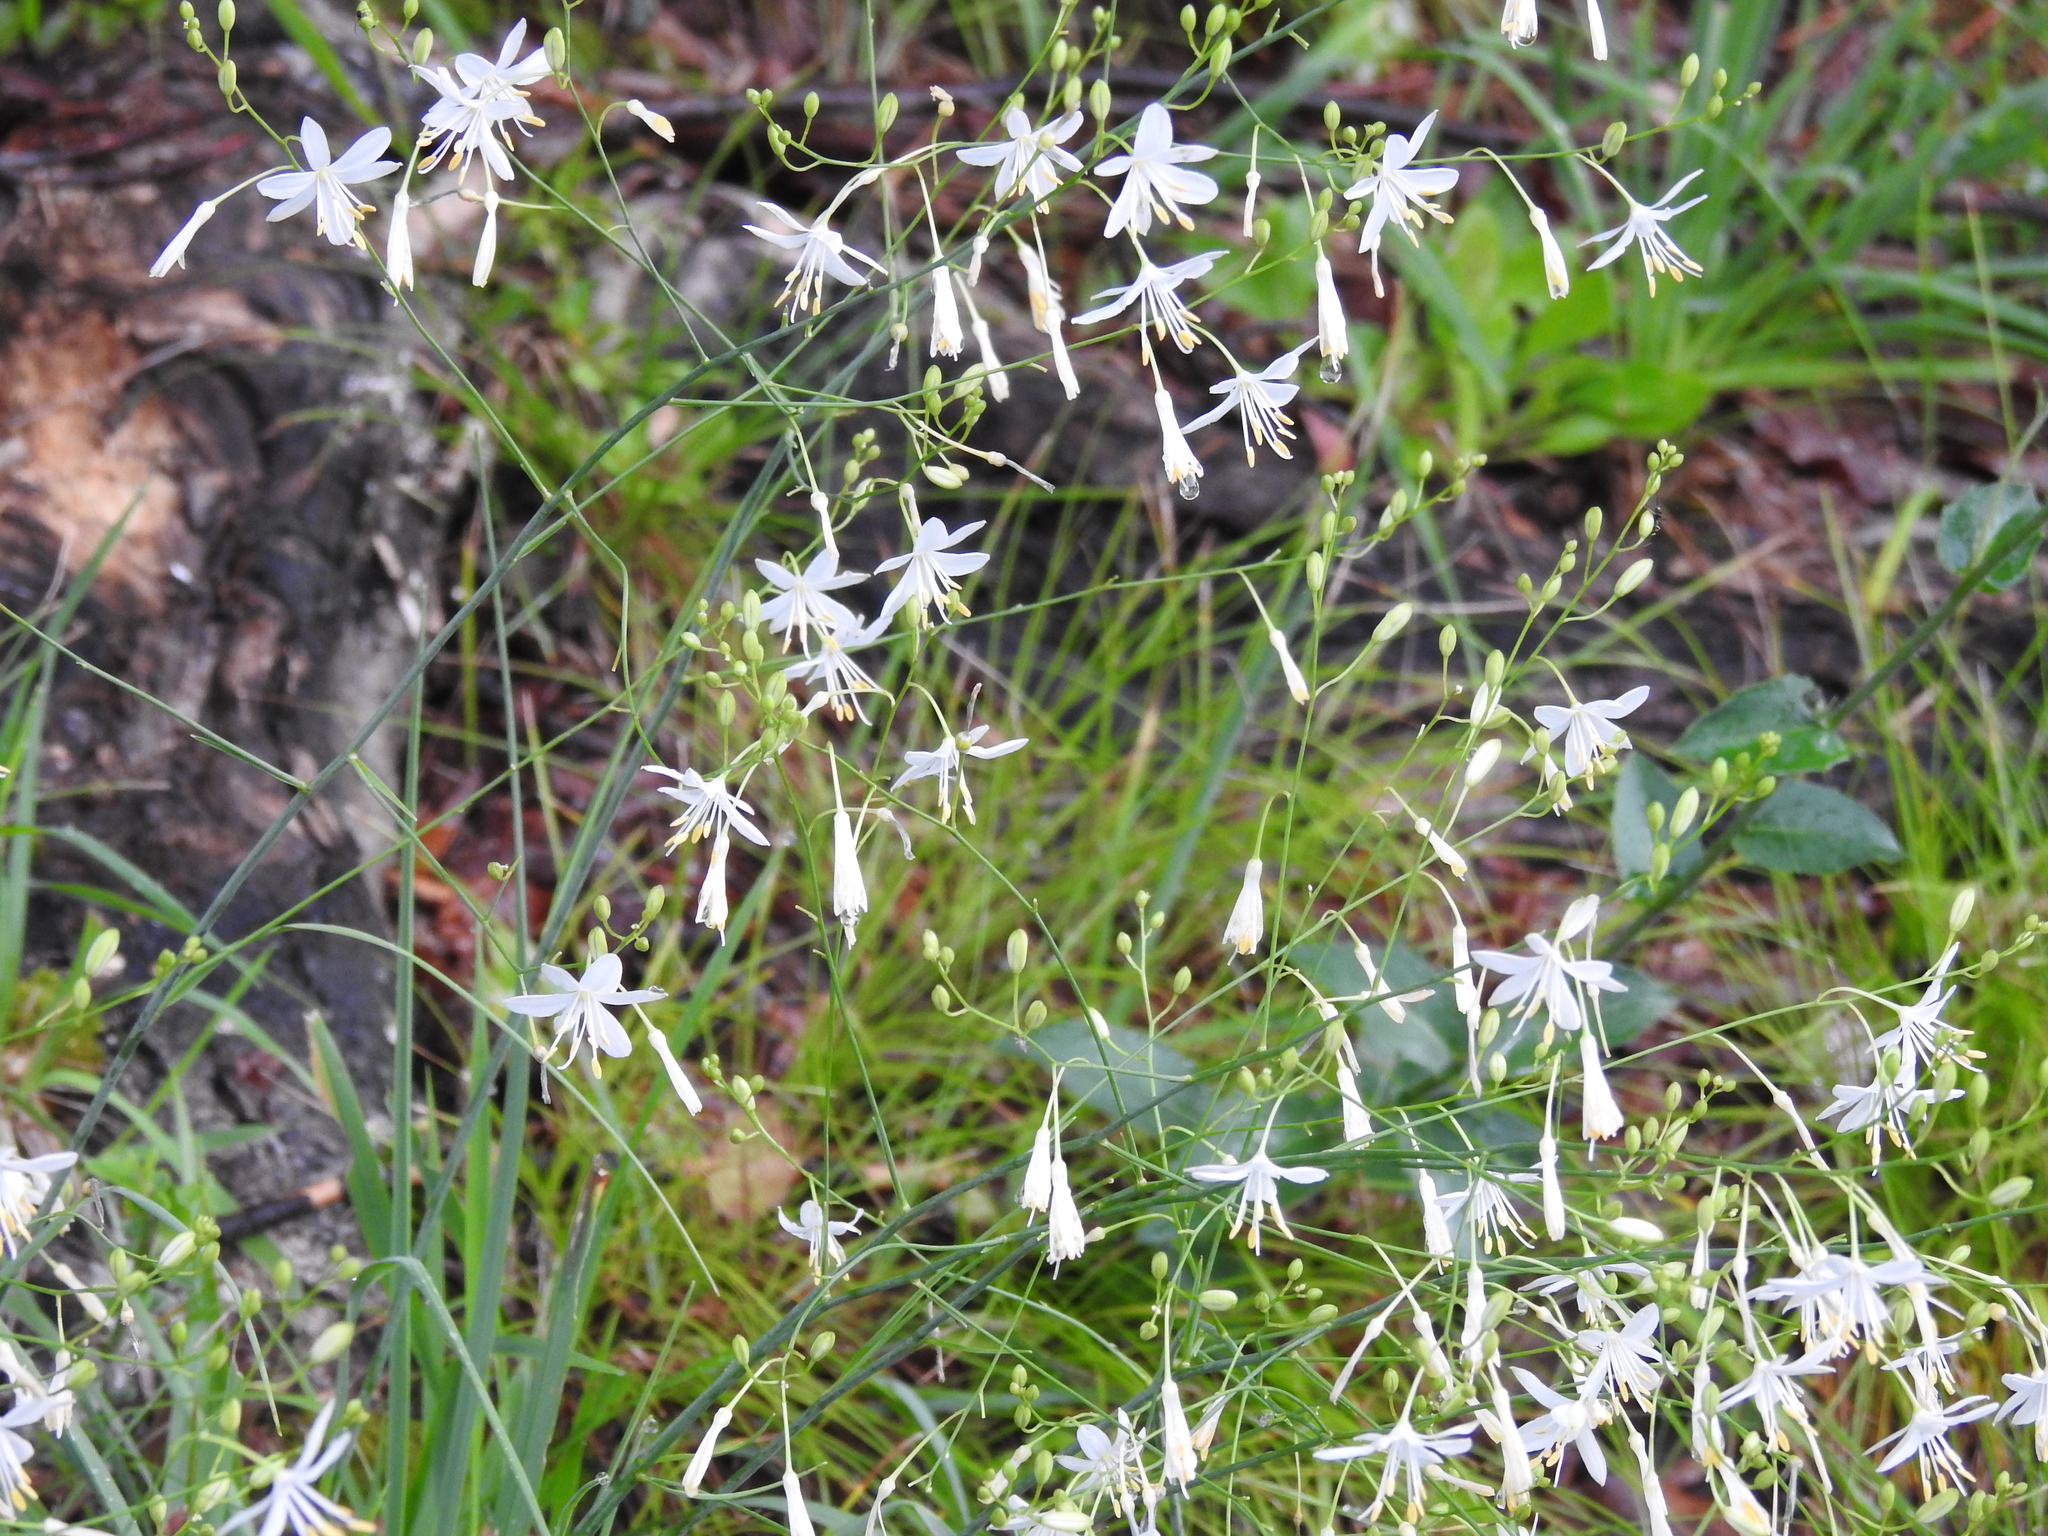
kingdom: Plantae
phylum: Tracheophyta
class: Liliopsida
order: Asparagales
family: Asparagaceae
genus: Anthericum
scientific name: Anthericum ramosum
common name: Branched st. bernard's-lily
